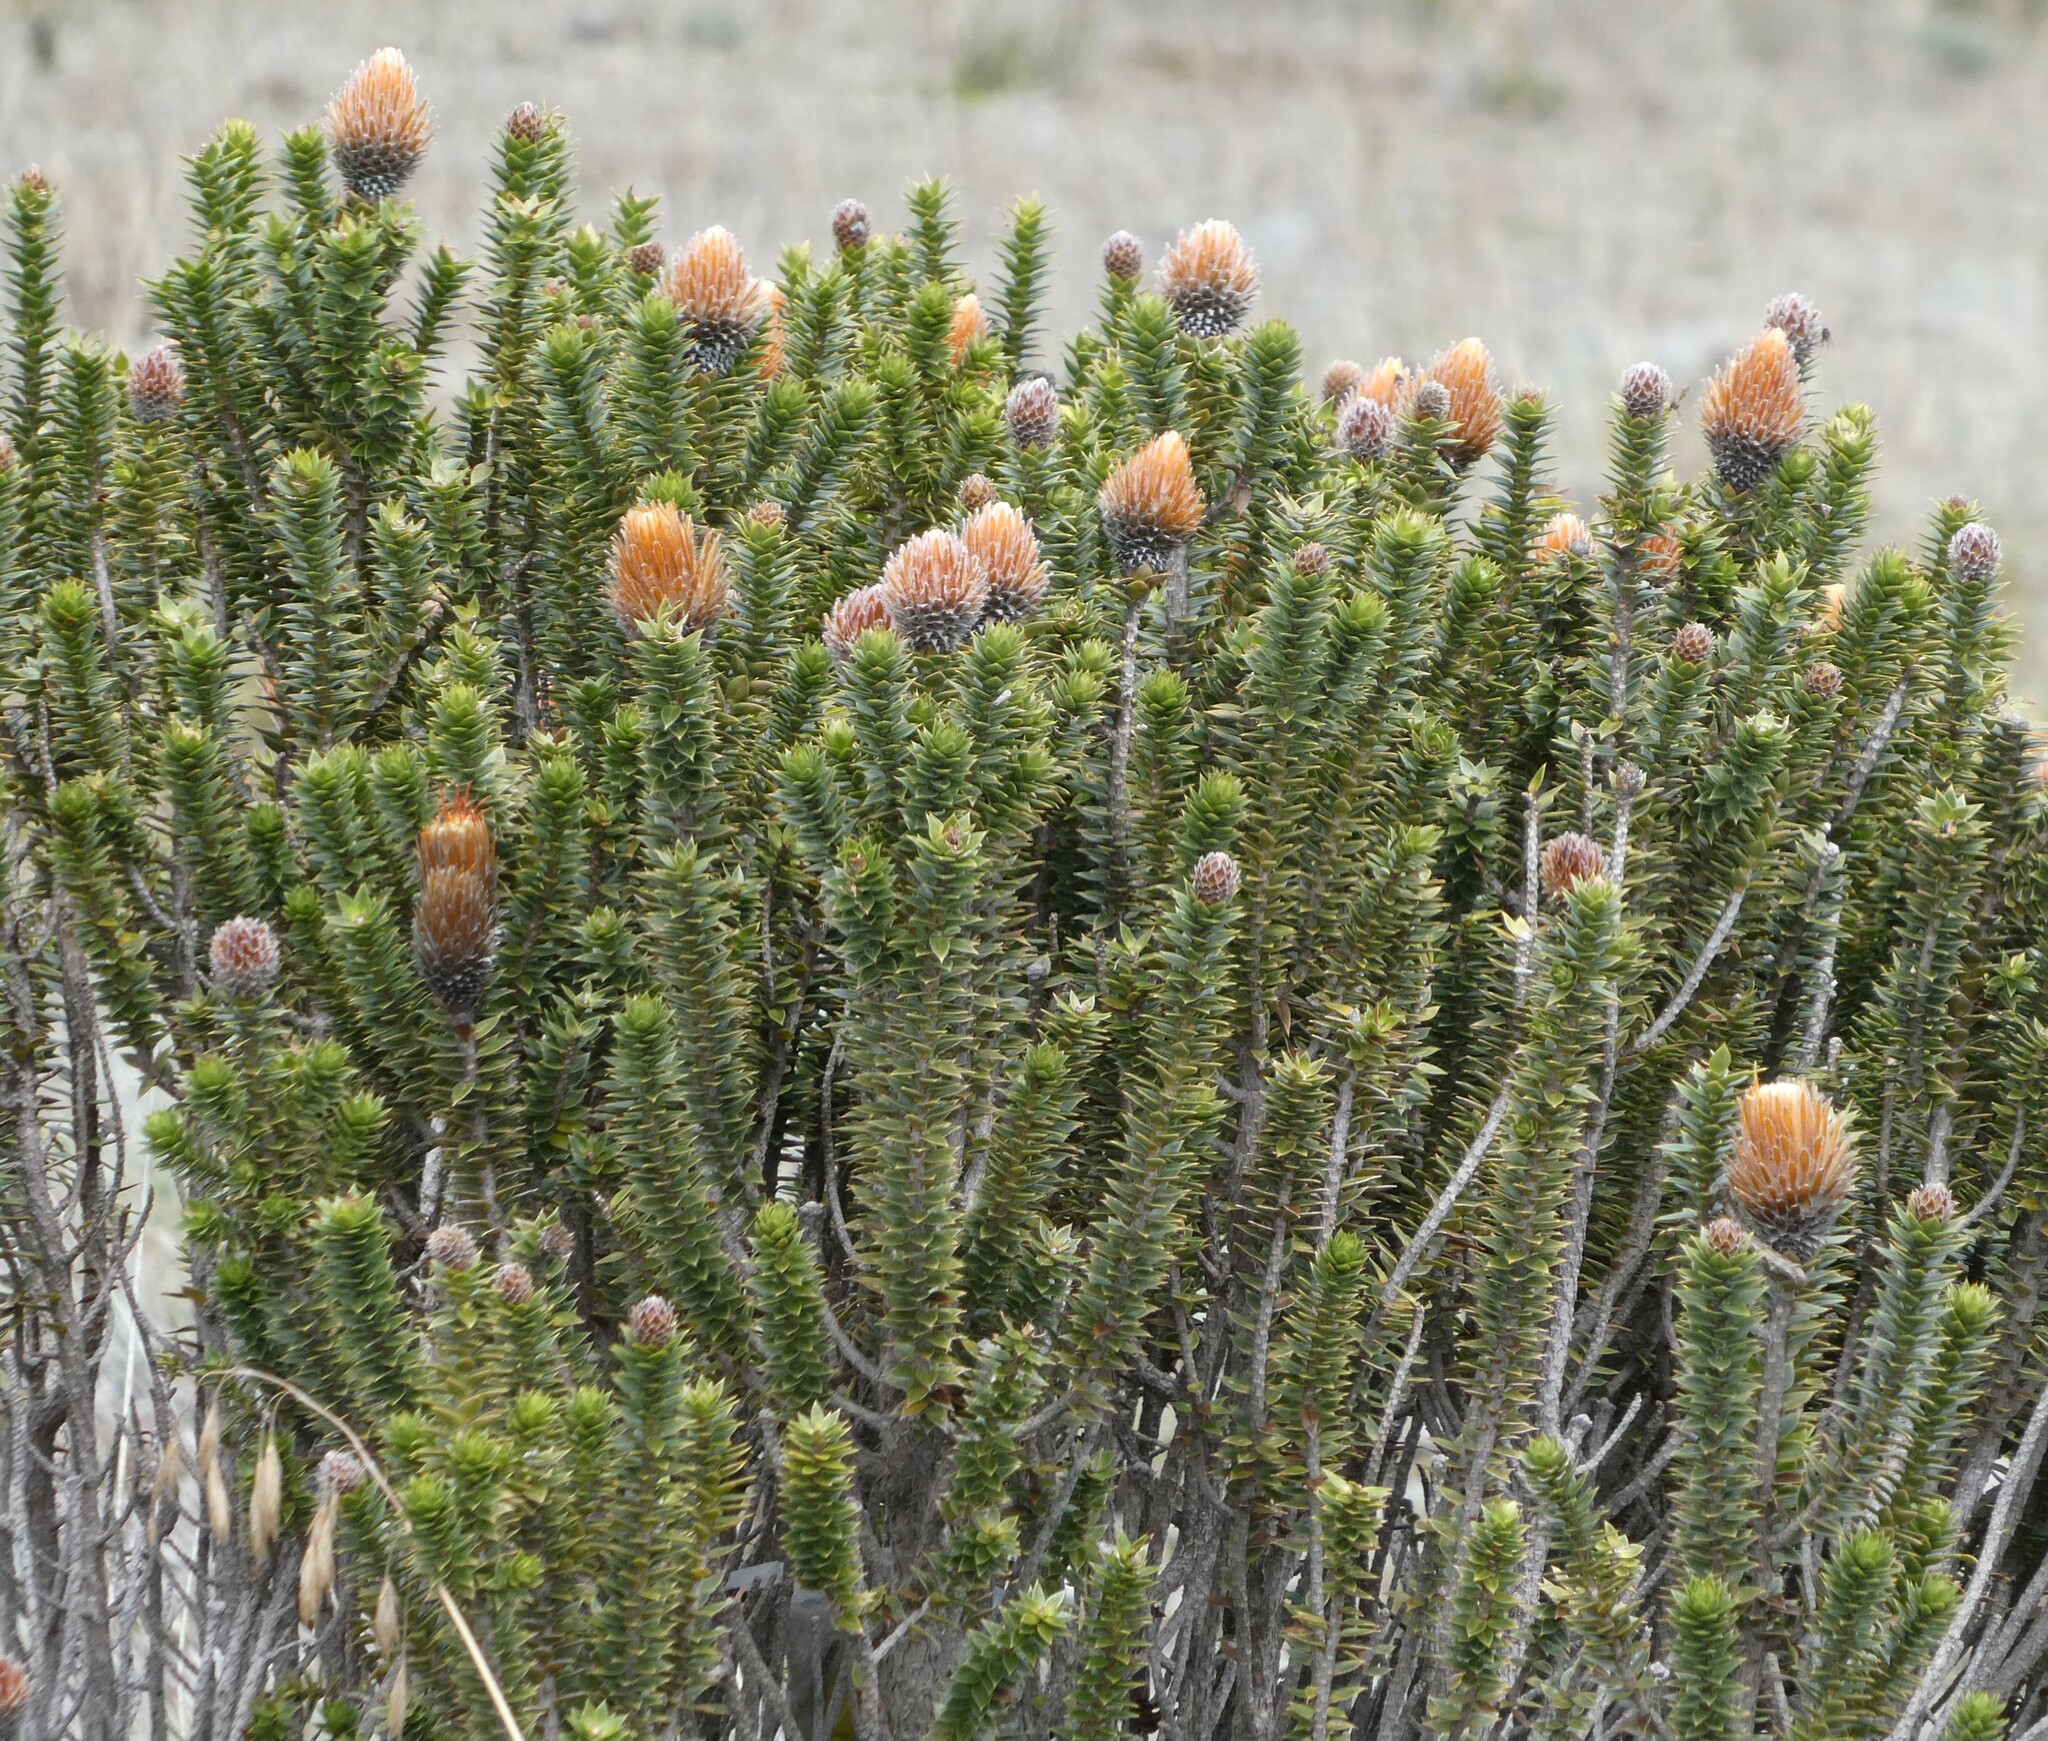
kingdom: Plantae
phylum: Tracheophyta
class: Magnoliopsida
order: Asterales
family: Asteraceae
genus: Chuquiraga
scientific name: Chuquiraga jussieui
